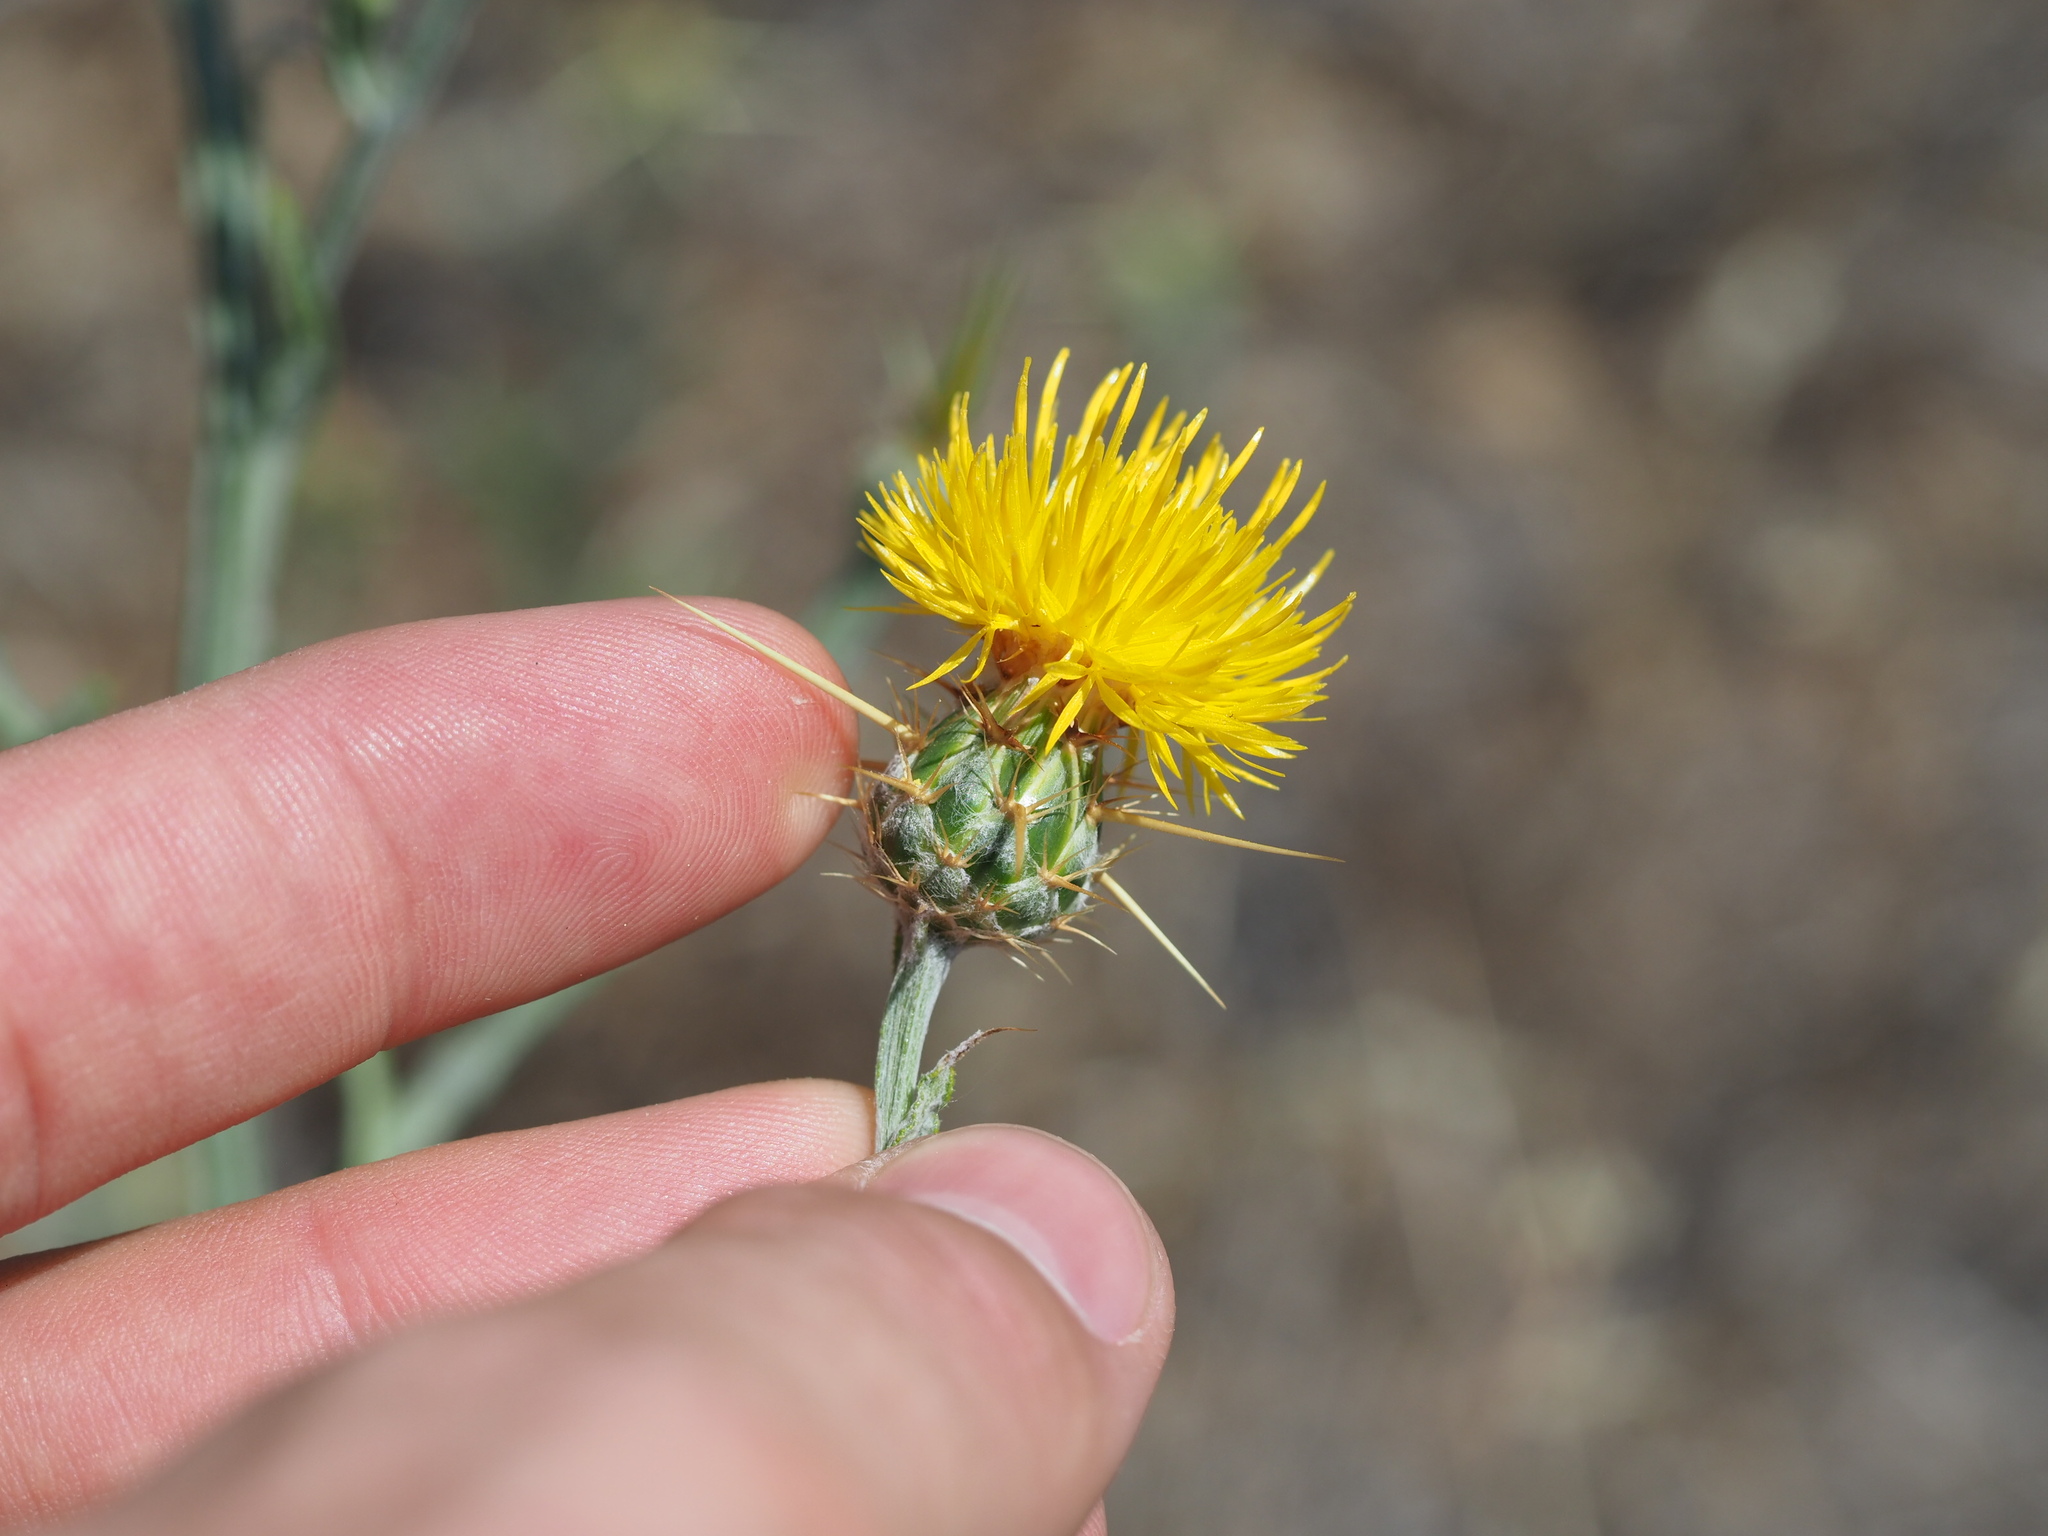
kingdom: Plantae
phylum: Tracheophyta
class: Magnoliopsida
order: Asterales
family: Asteraceae
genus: Centaurea
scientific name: Centaurea solstitialis
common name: Yellow star-thistle
